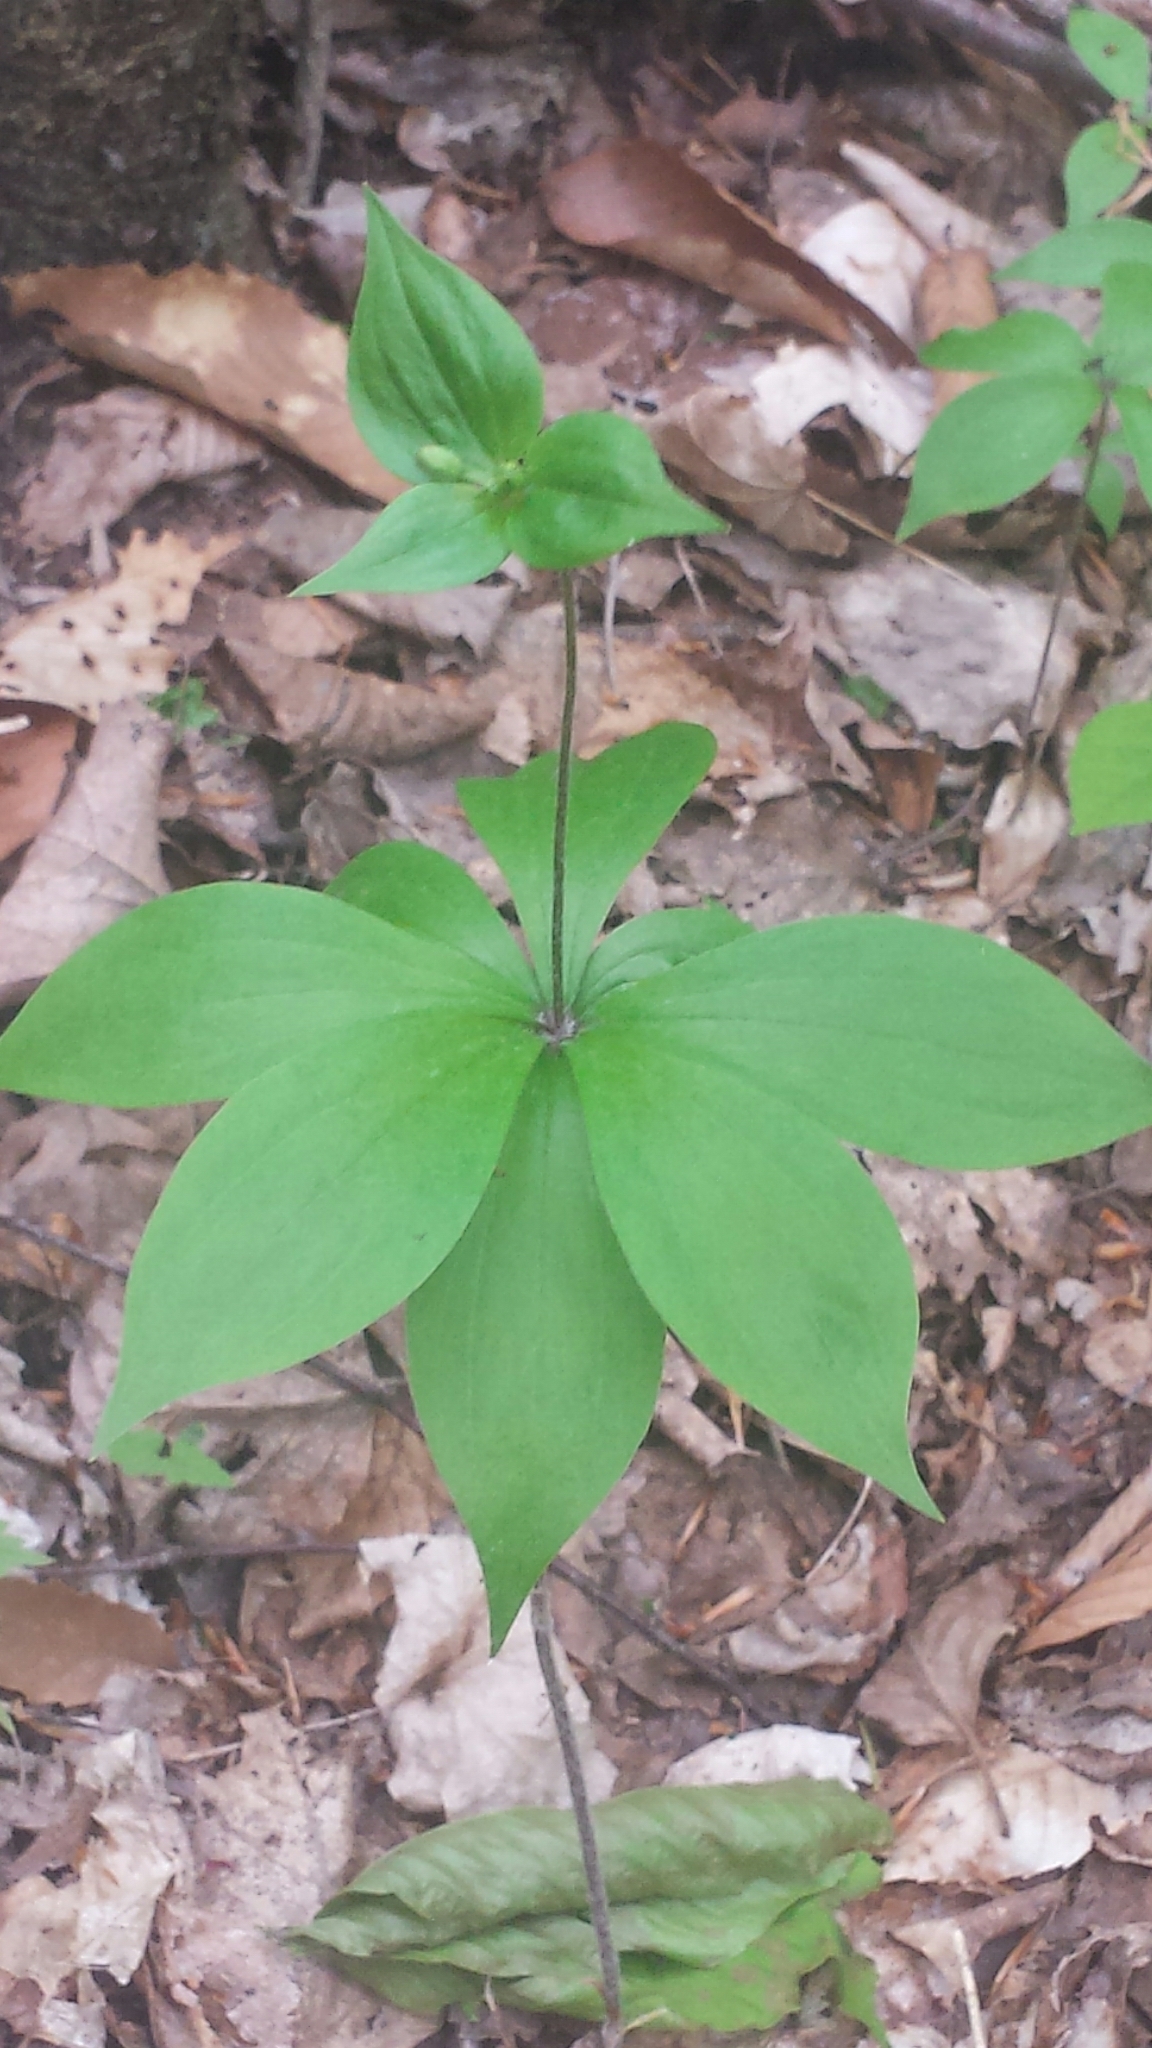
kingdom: Plantae
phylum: Tracheophyta
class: Liliopsida
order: Liliales
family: Liliaceae
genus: Medeola
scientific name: Medeola virginiana
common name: Indian cucumber-root
